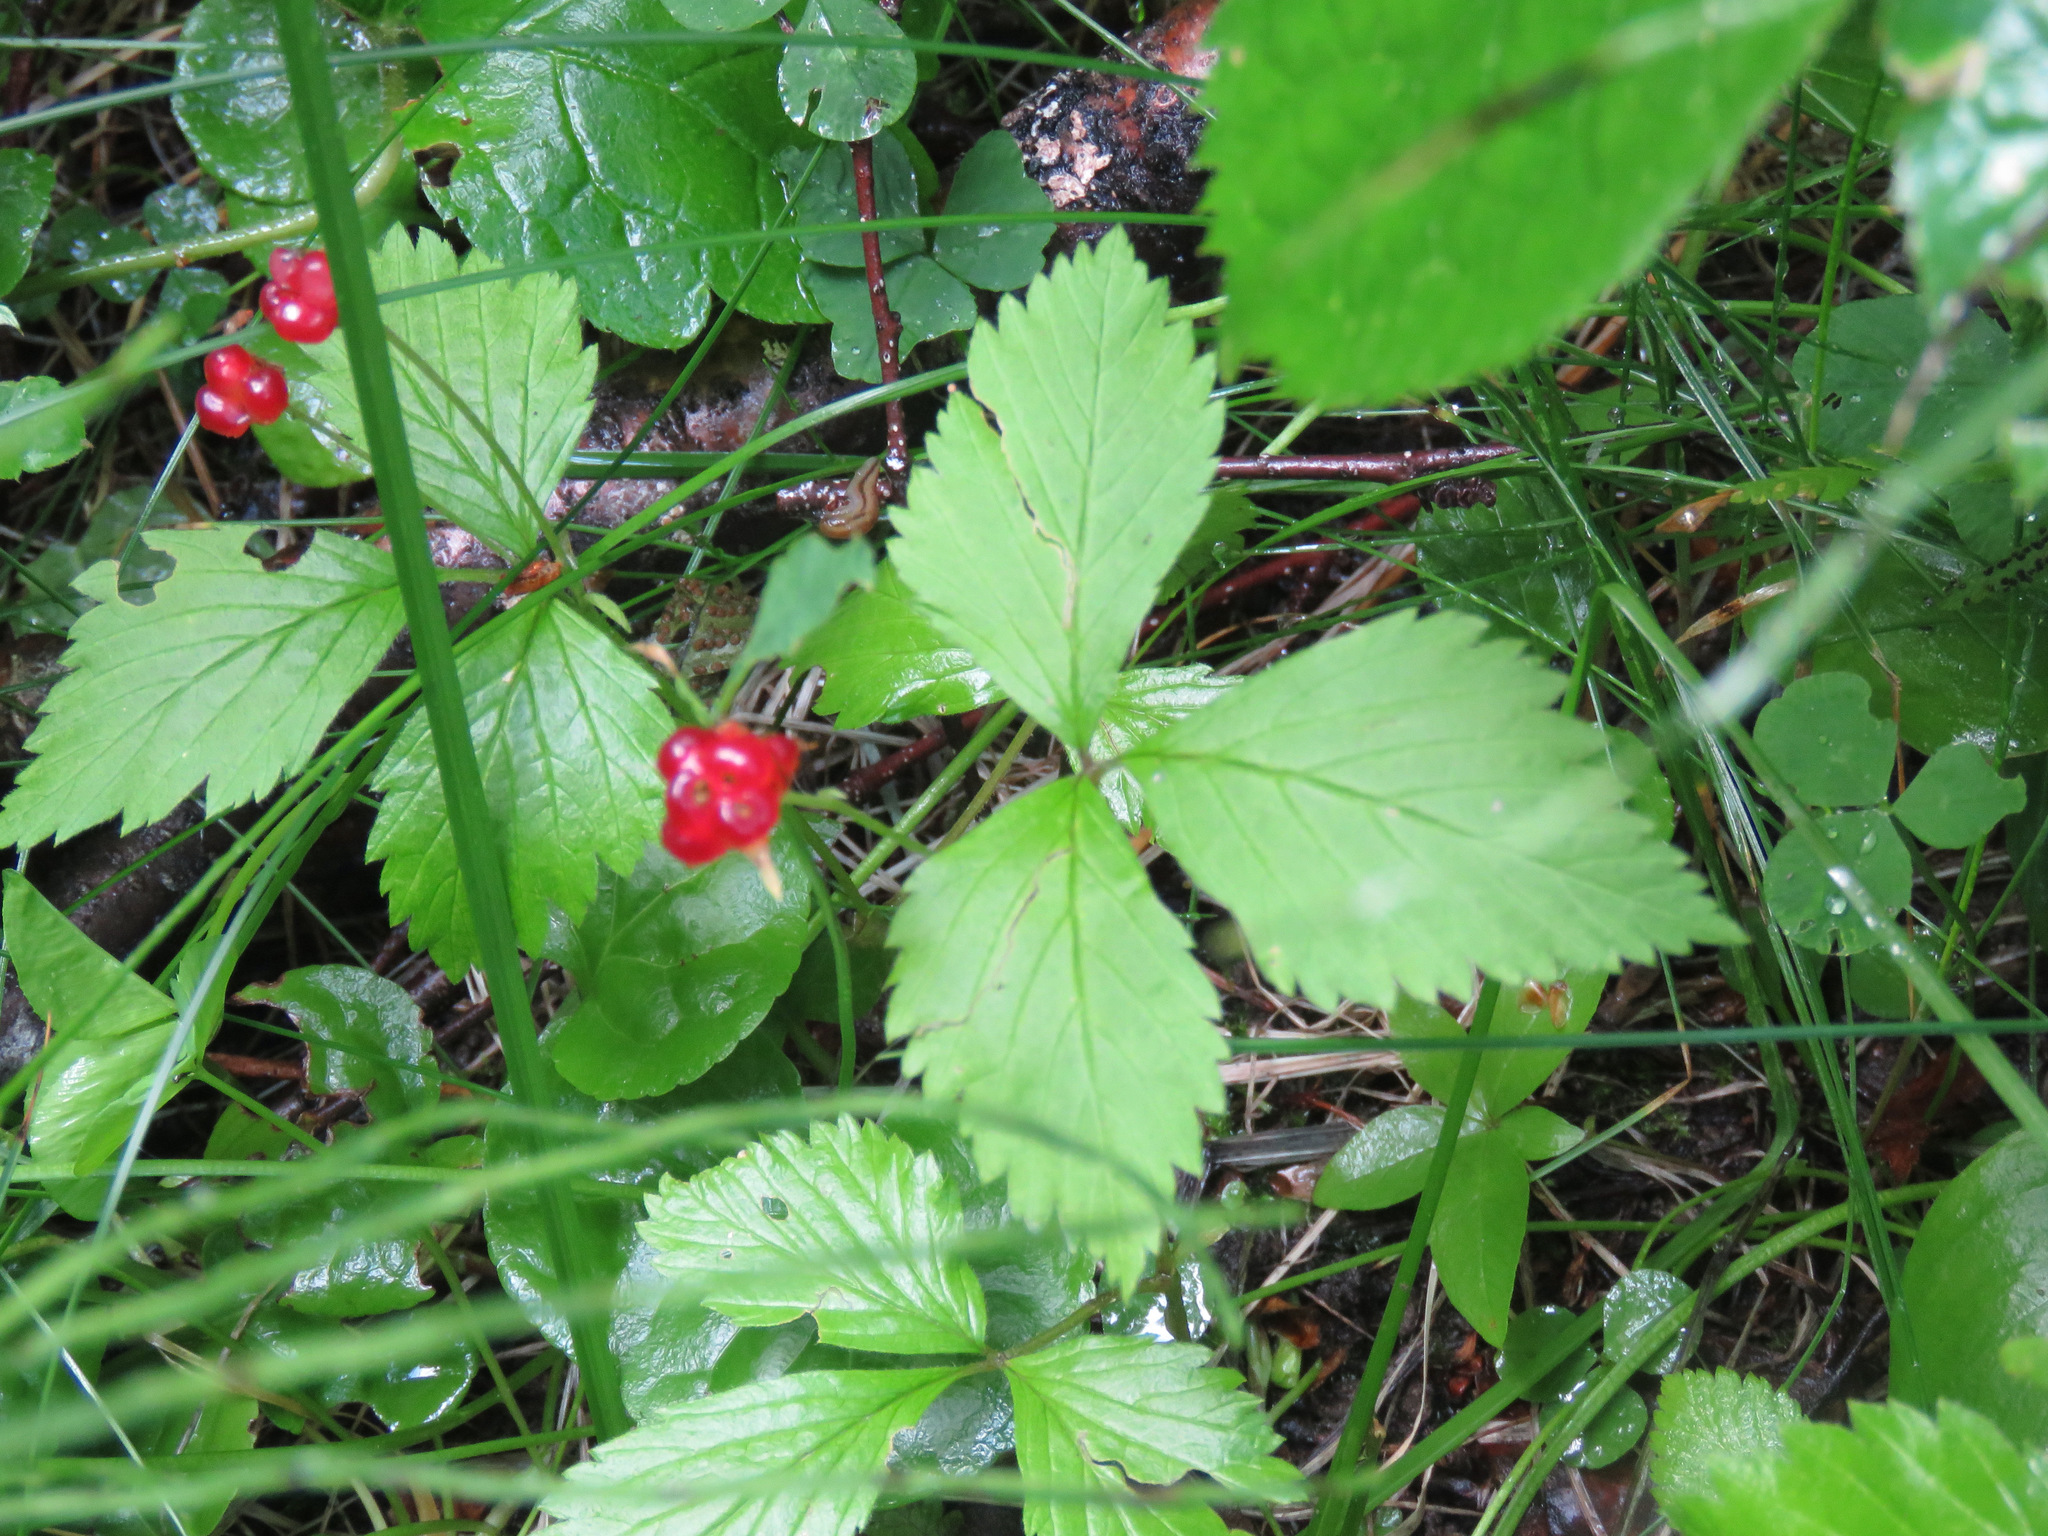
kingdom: Plantae
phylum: Tracheophyta
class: Magnoliopsida
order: Rosales
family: Rosaceae
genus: Rubus
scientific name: Rubus pubescens
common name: Dwarf raspberry
